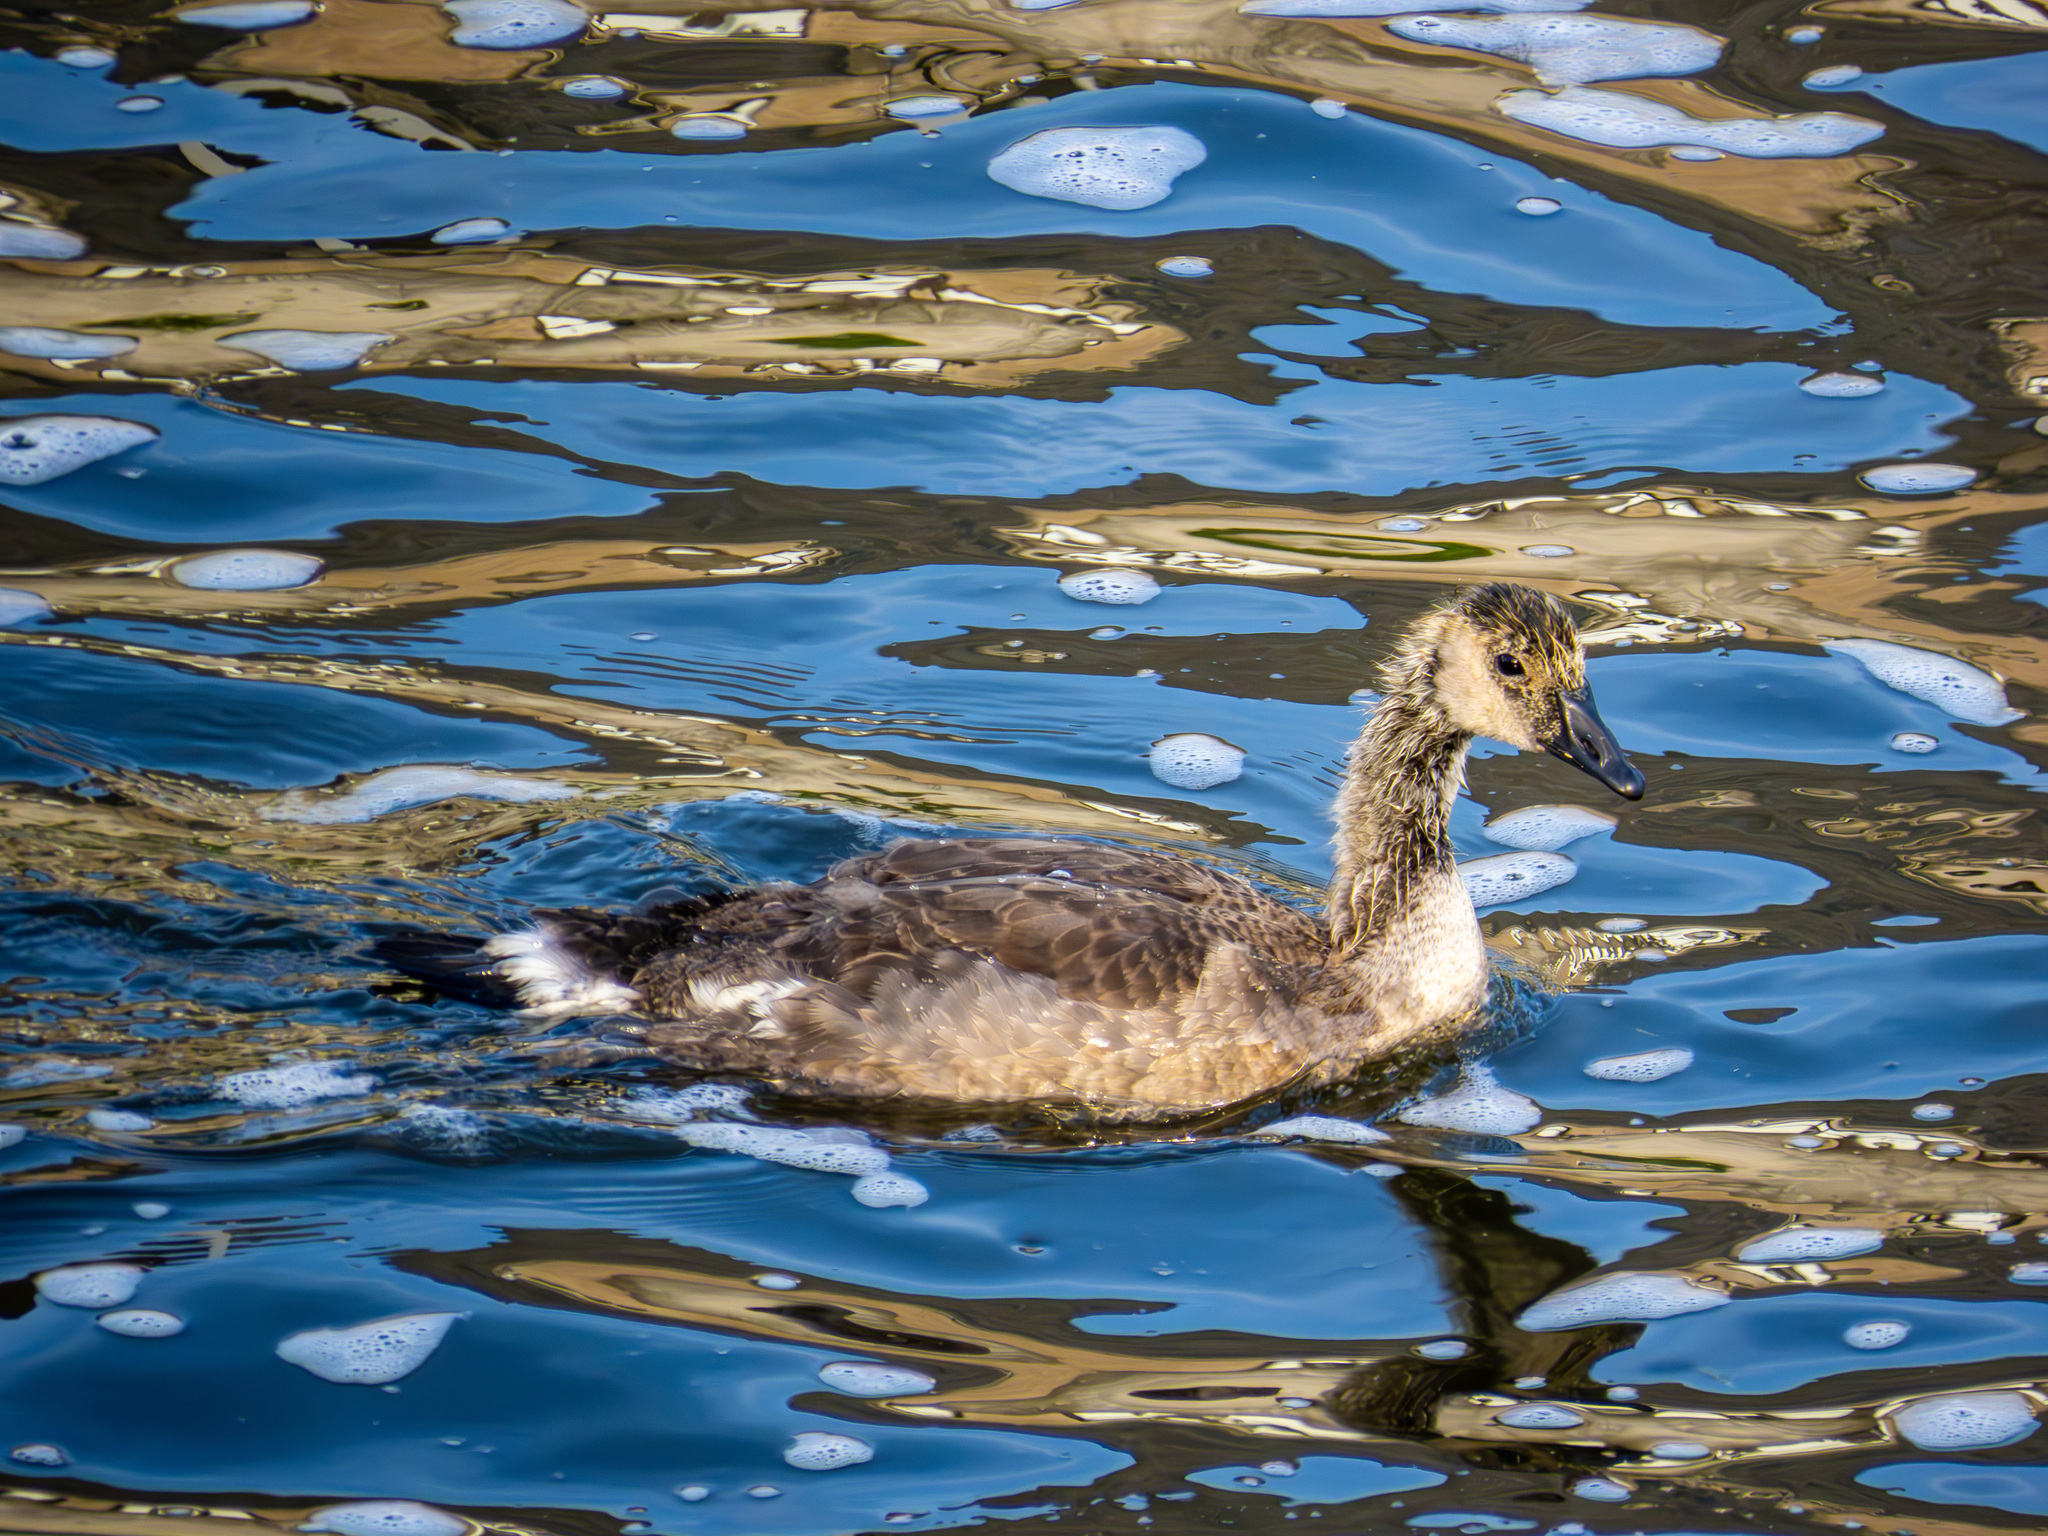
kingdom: Animalia
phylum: Chordata
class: Aves
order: Anseriformes
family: Anatidae
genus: Branta
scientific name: Branta canadensis
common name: Canada goose
